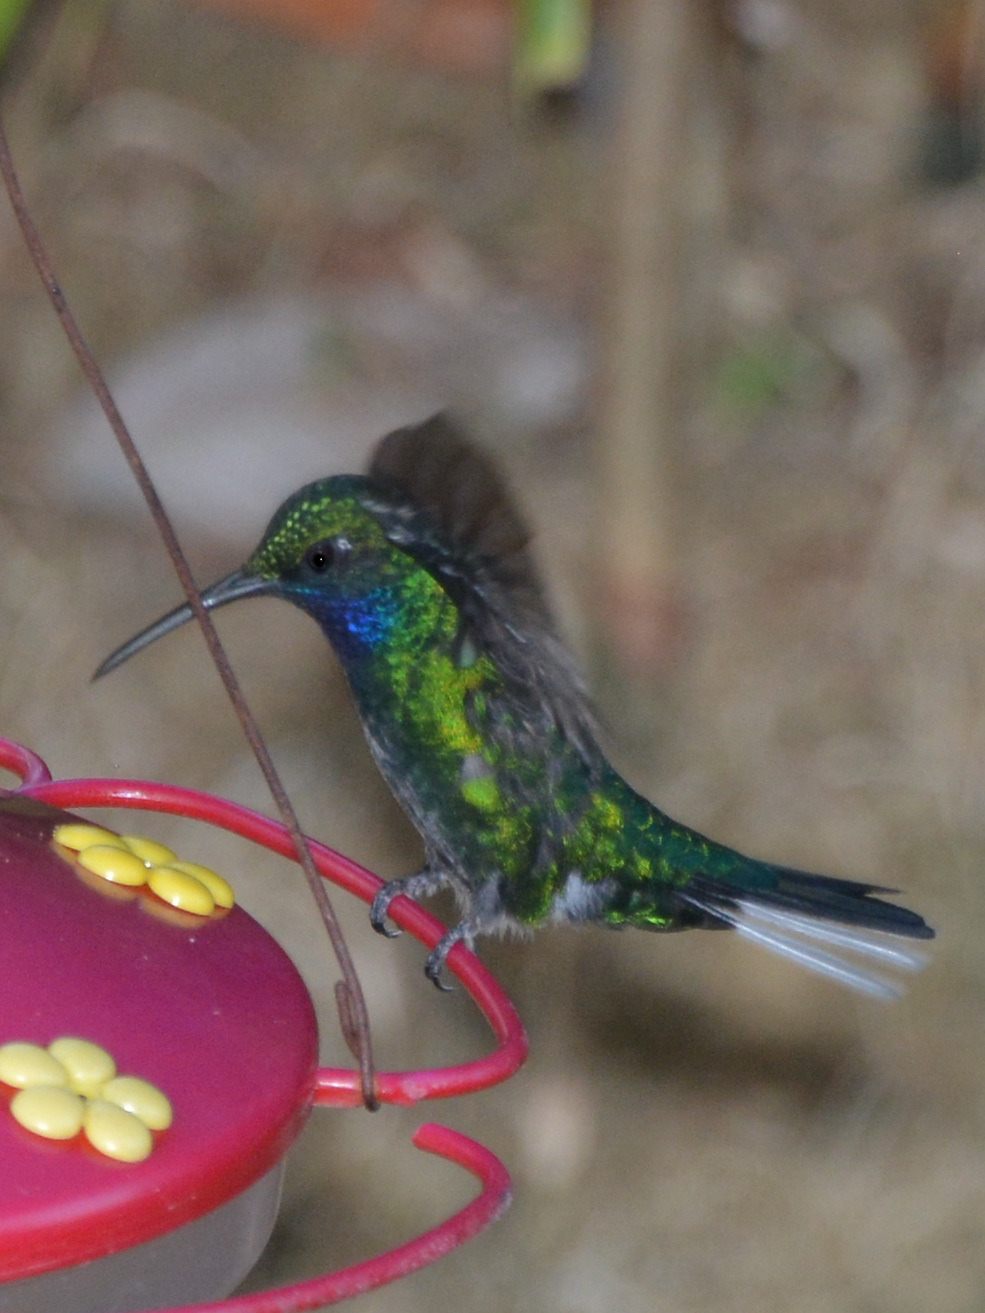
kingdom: Animalia
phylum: Chordata
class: Aves
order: Apodiformes
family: Trochilidae
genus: Campylopterus
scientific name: Campylopterus ensipennis
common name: White-tailed sabrewing
